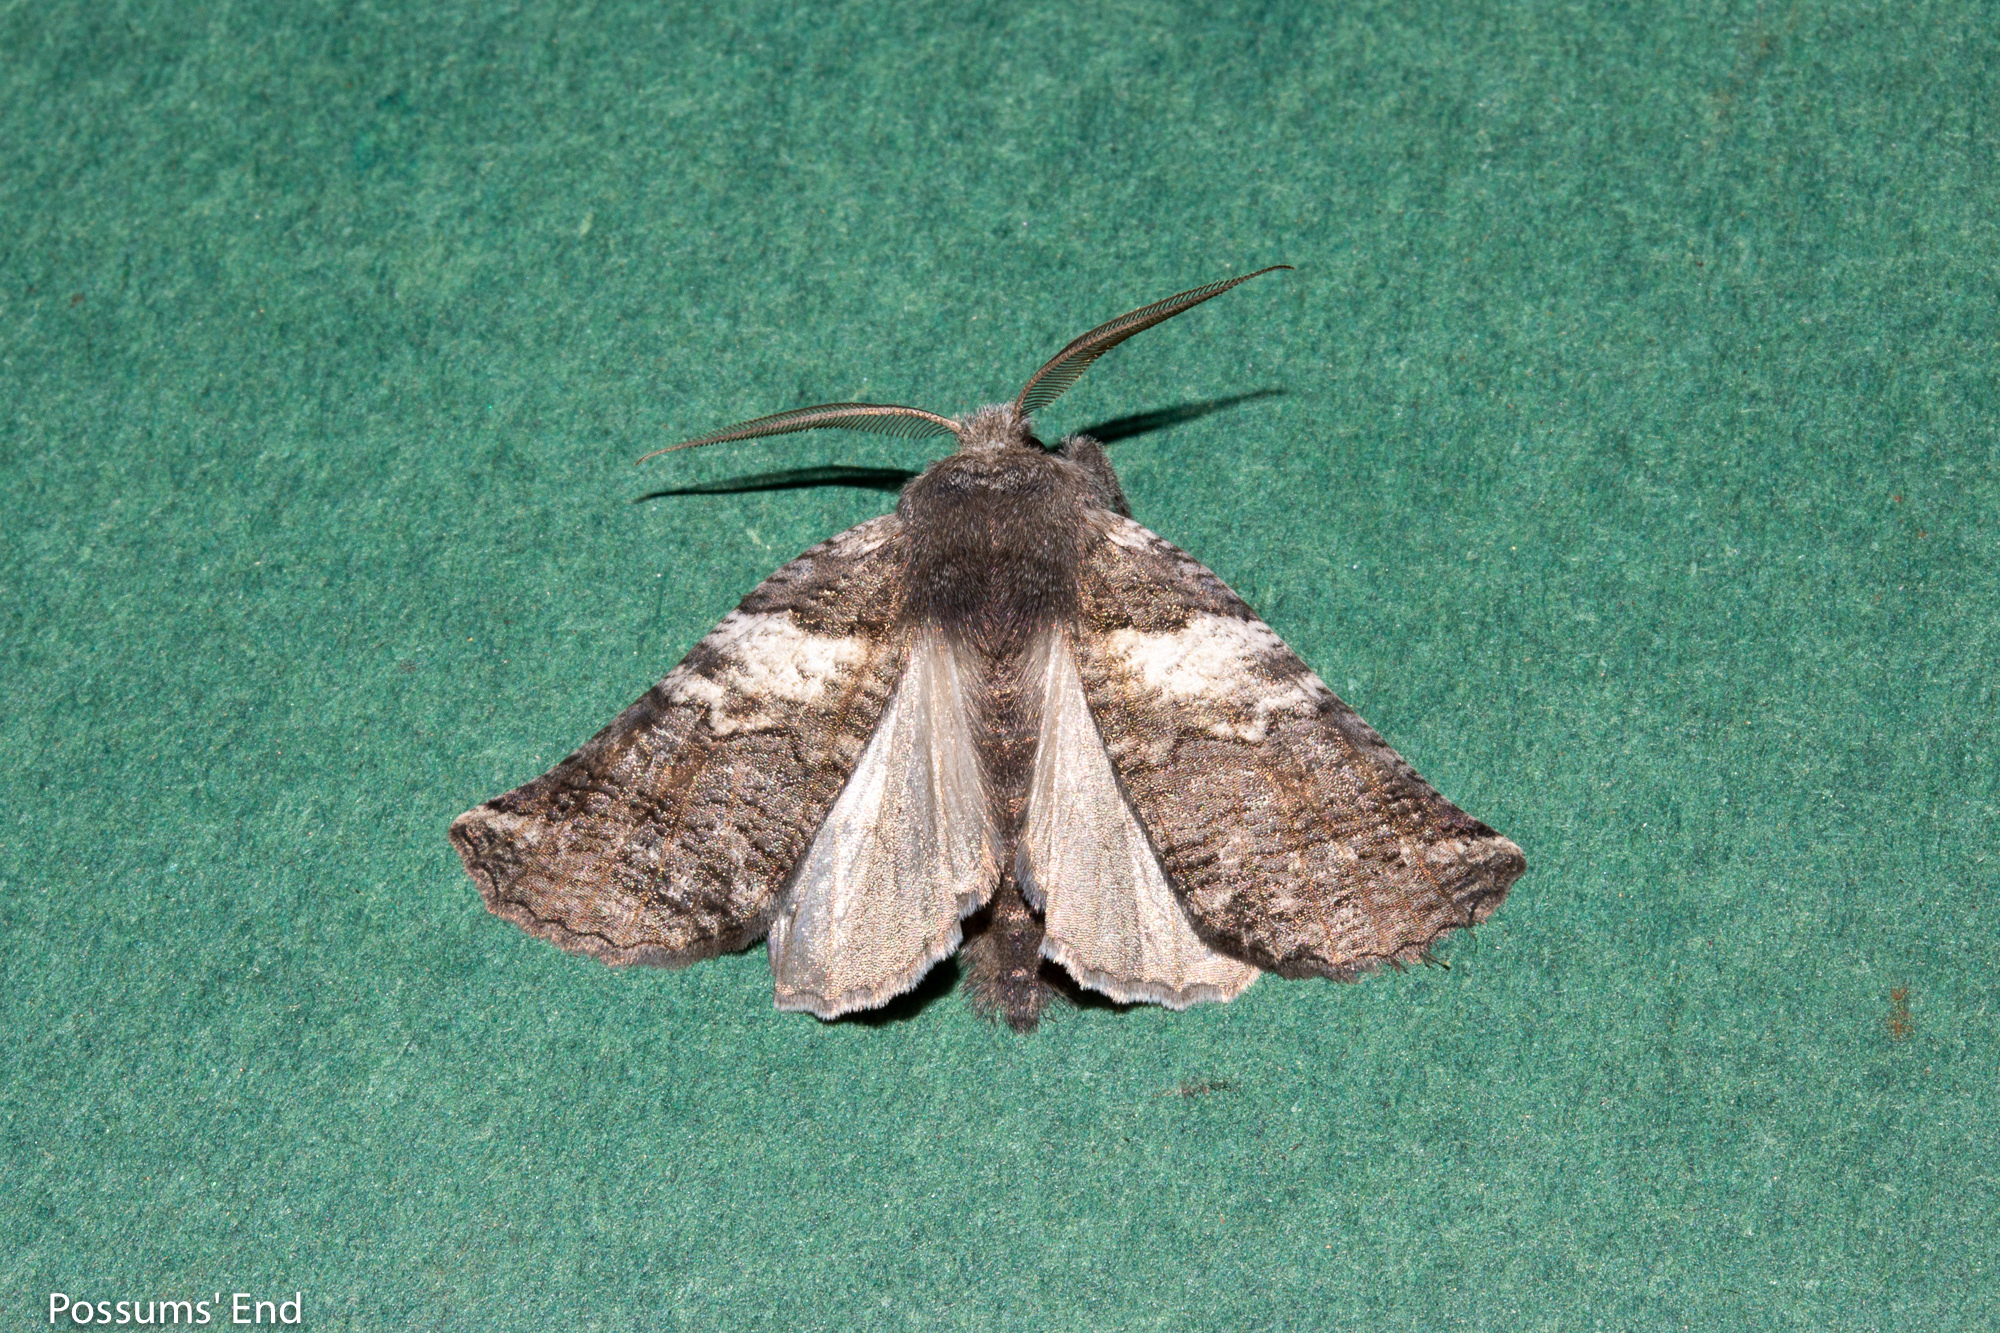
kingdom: Animalia
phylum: Arthropoda
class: Insecta
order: Lepidoptera
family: Geometridae
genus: Declana
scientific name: Declana
